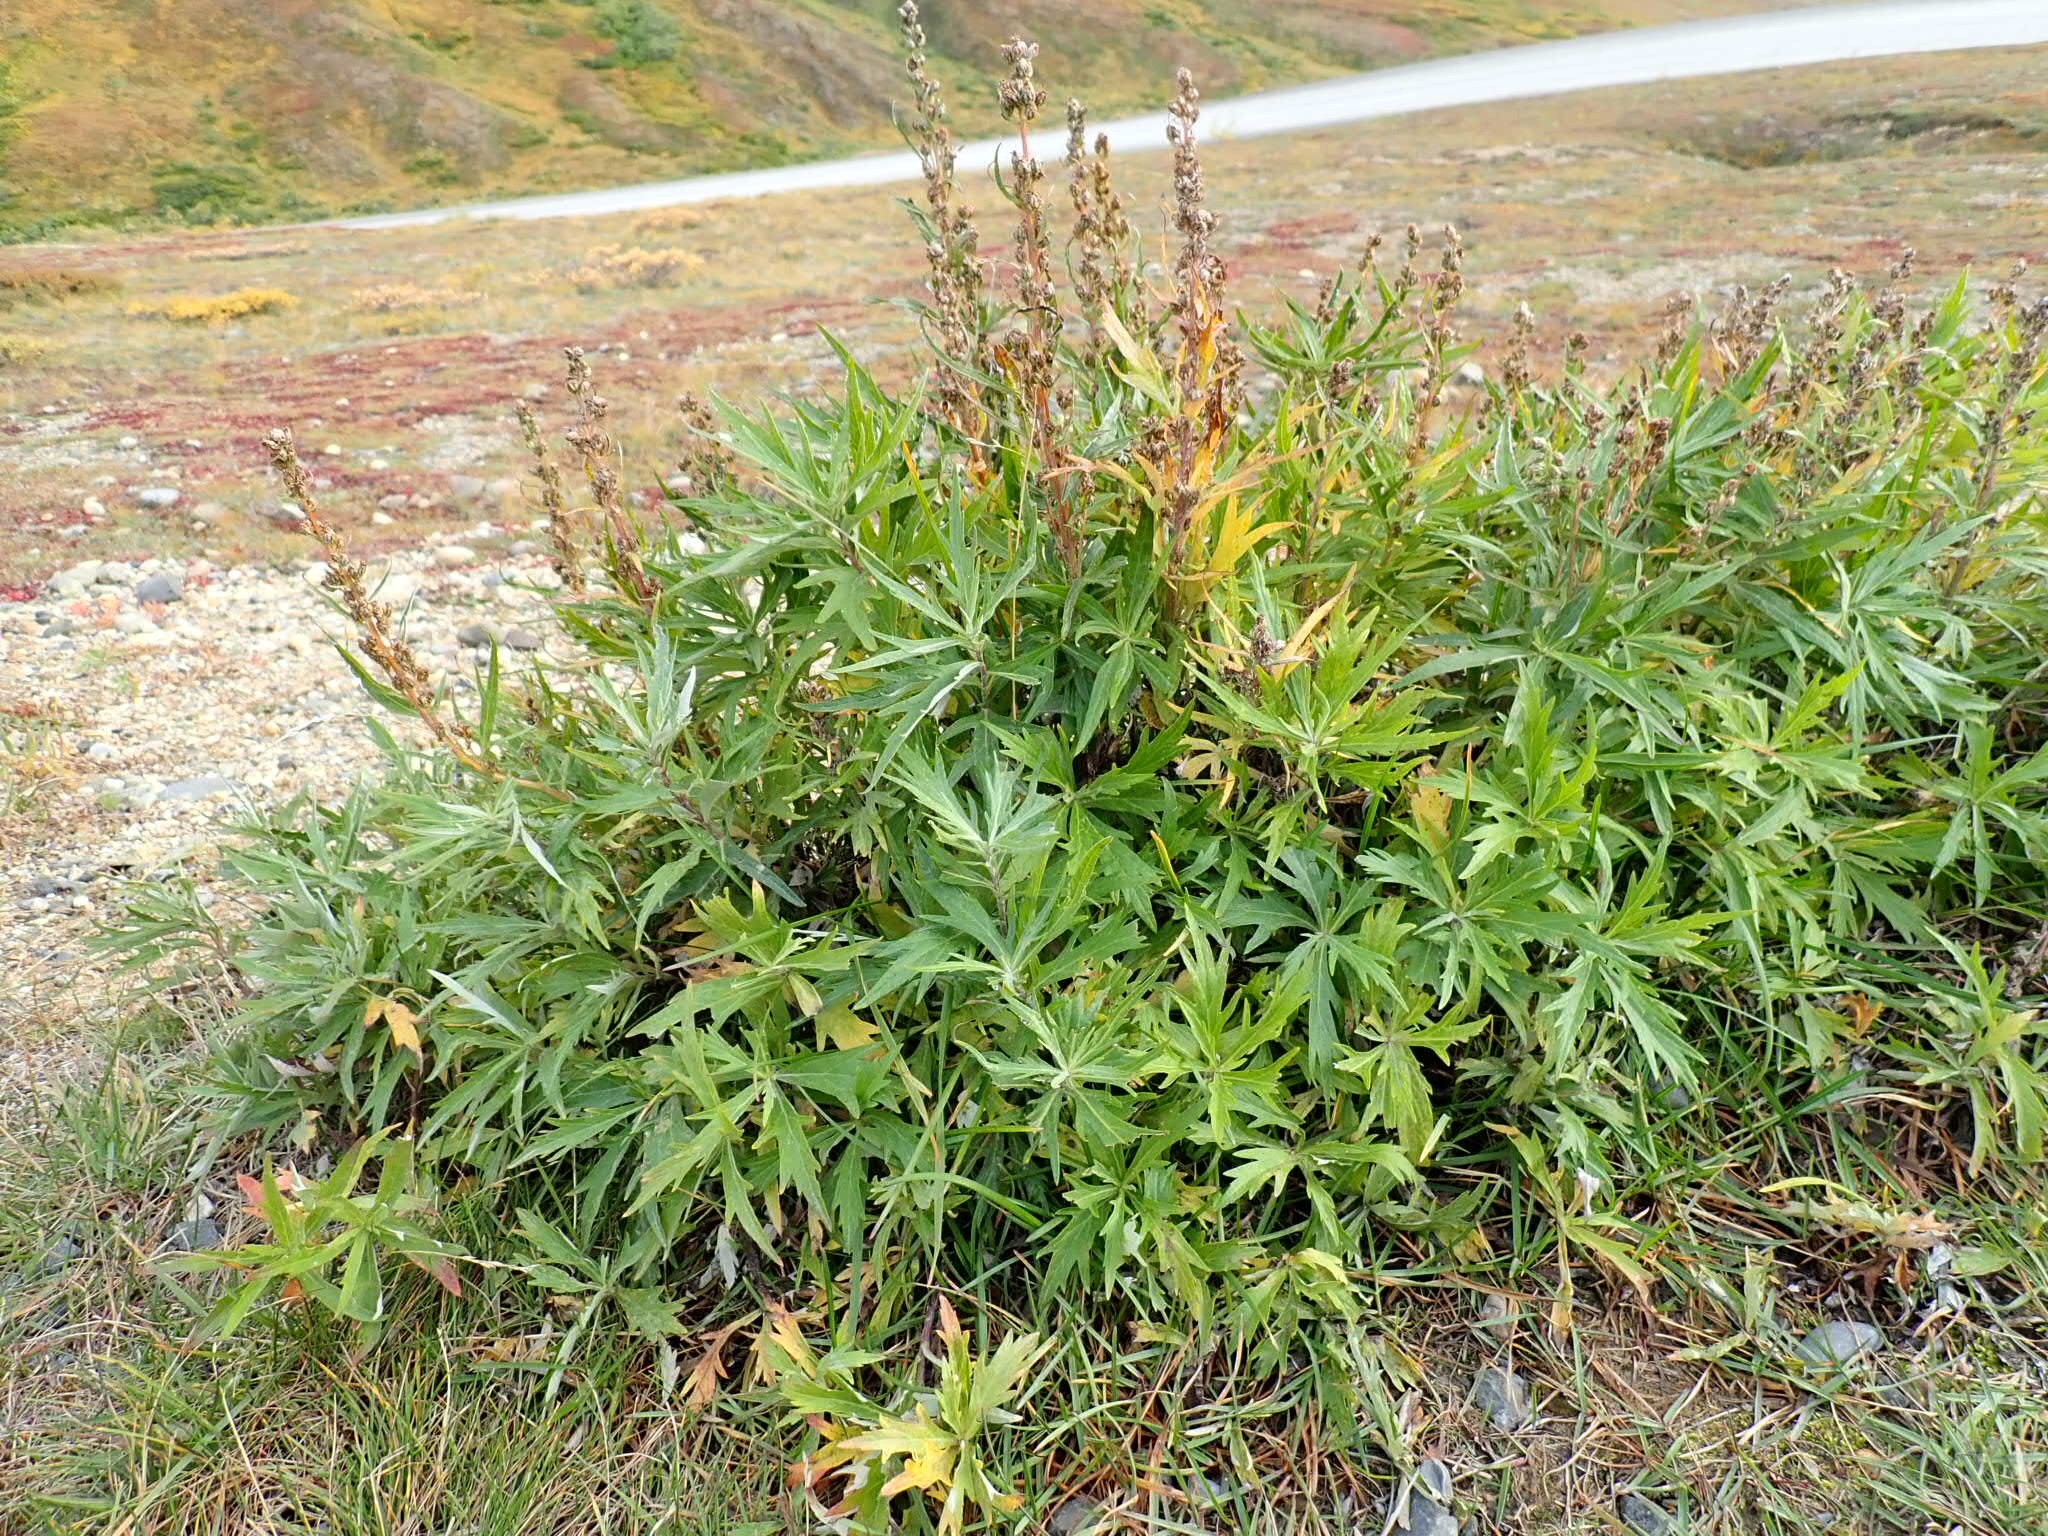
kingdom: Plantae
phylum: Tracheophyta
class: Magnoliopsida
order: Asterales
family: Asteraceae
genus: Artemisia
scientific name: Artemisia tilesii
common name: Aleutian mugwort
